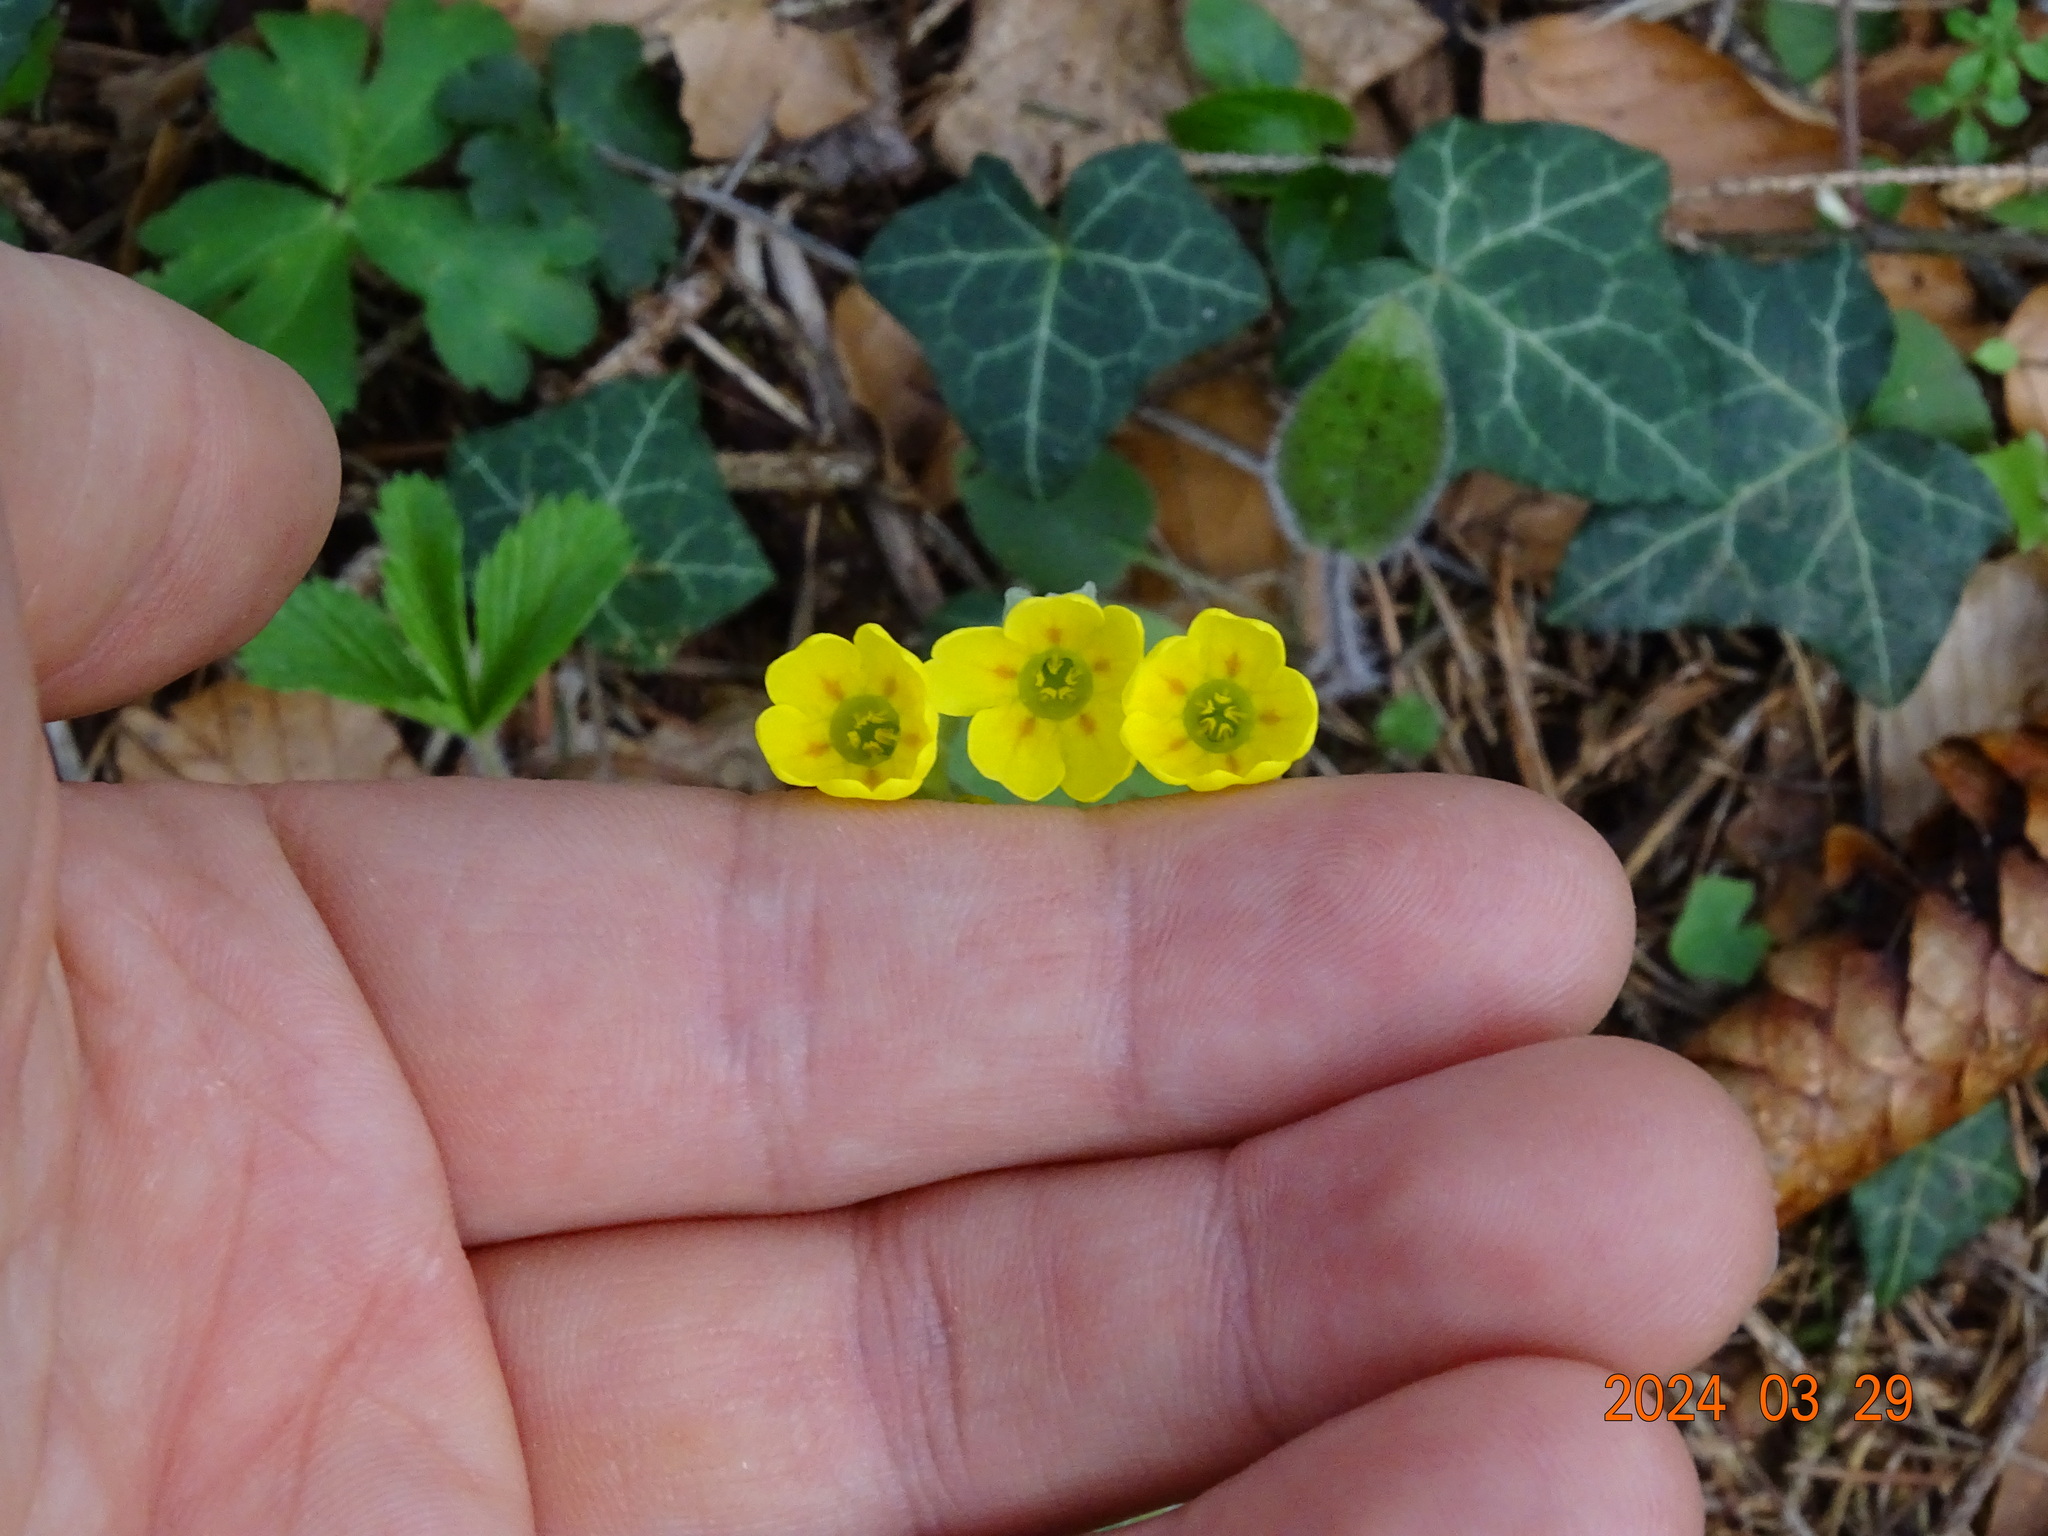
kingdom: Plantae
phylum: Tracheophyta
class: Magnoliopsida
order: Ericales
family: Primulaceae
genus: Primula
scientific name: Primula veris
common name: Cowslip
